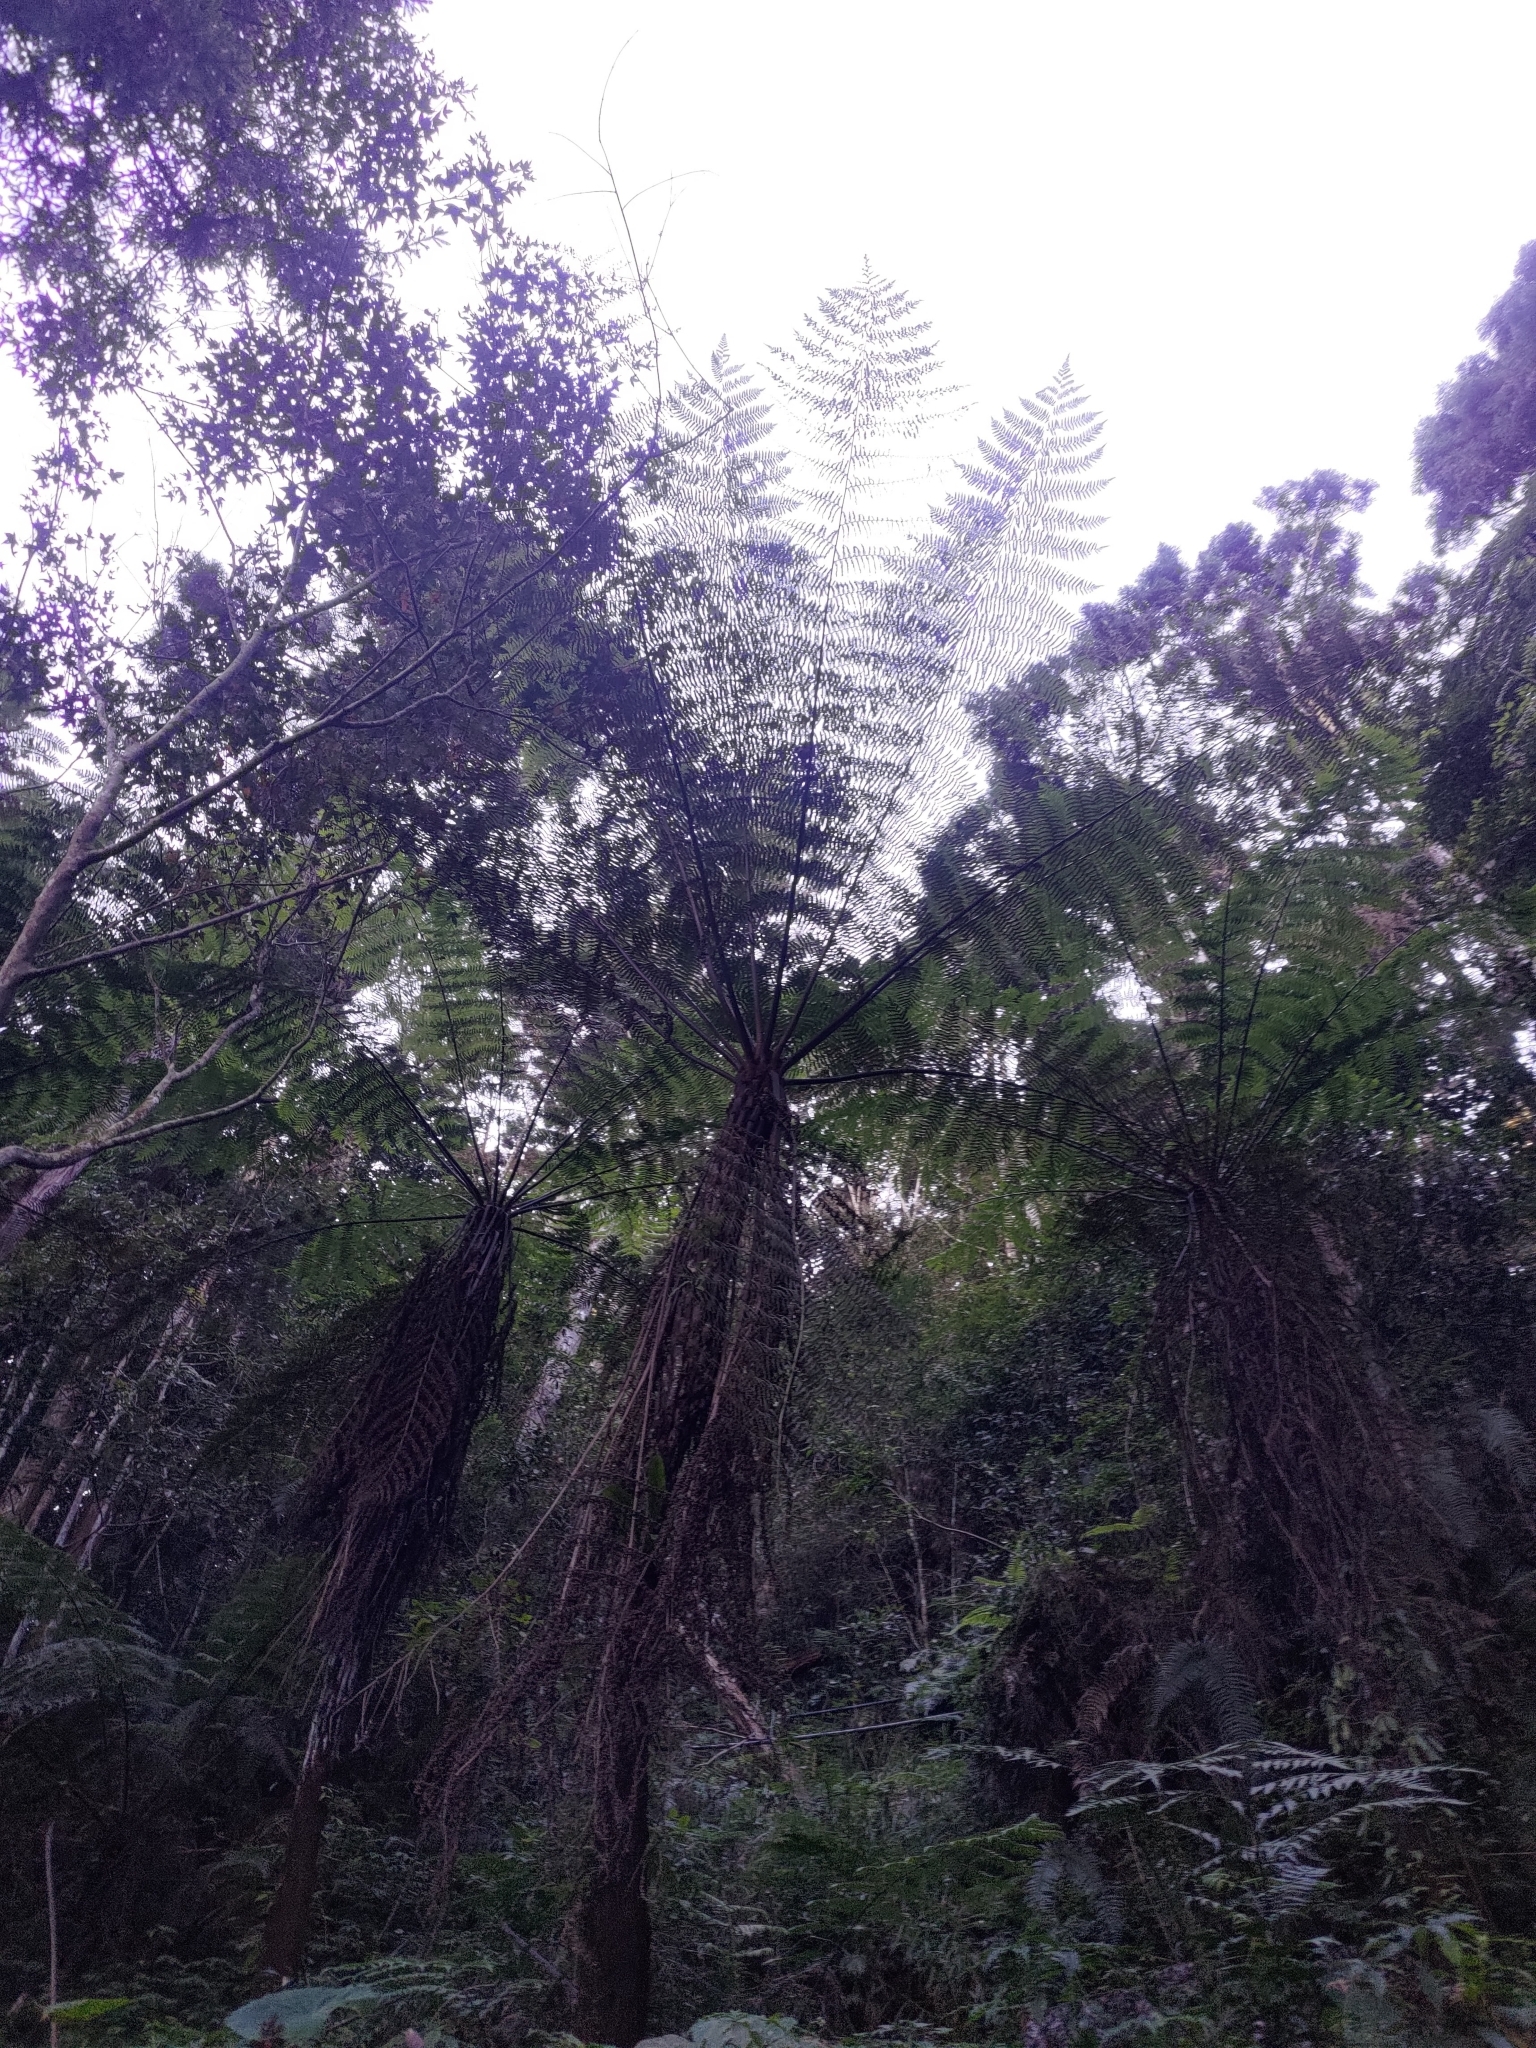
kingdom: Plantae
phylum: Tracheophyta
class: Polypodiopsida
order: Cyatheales
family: Cyatheaceae
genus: Alsophila
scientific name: Alsophila spinulosa
